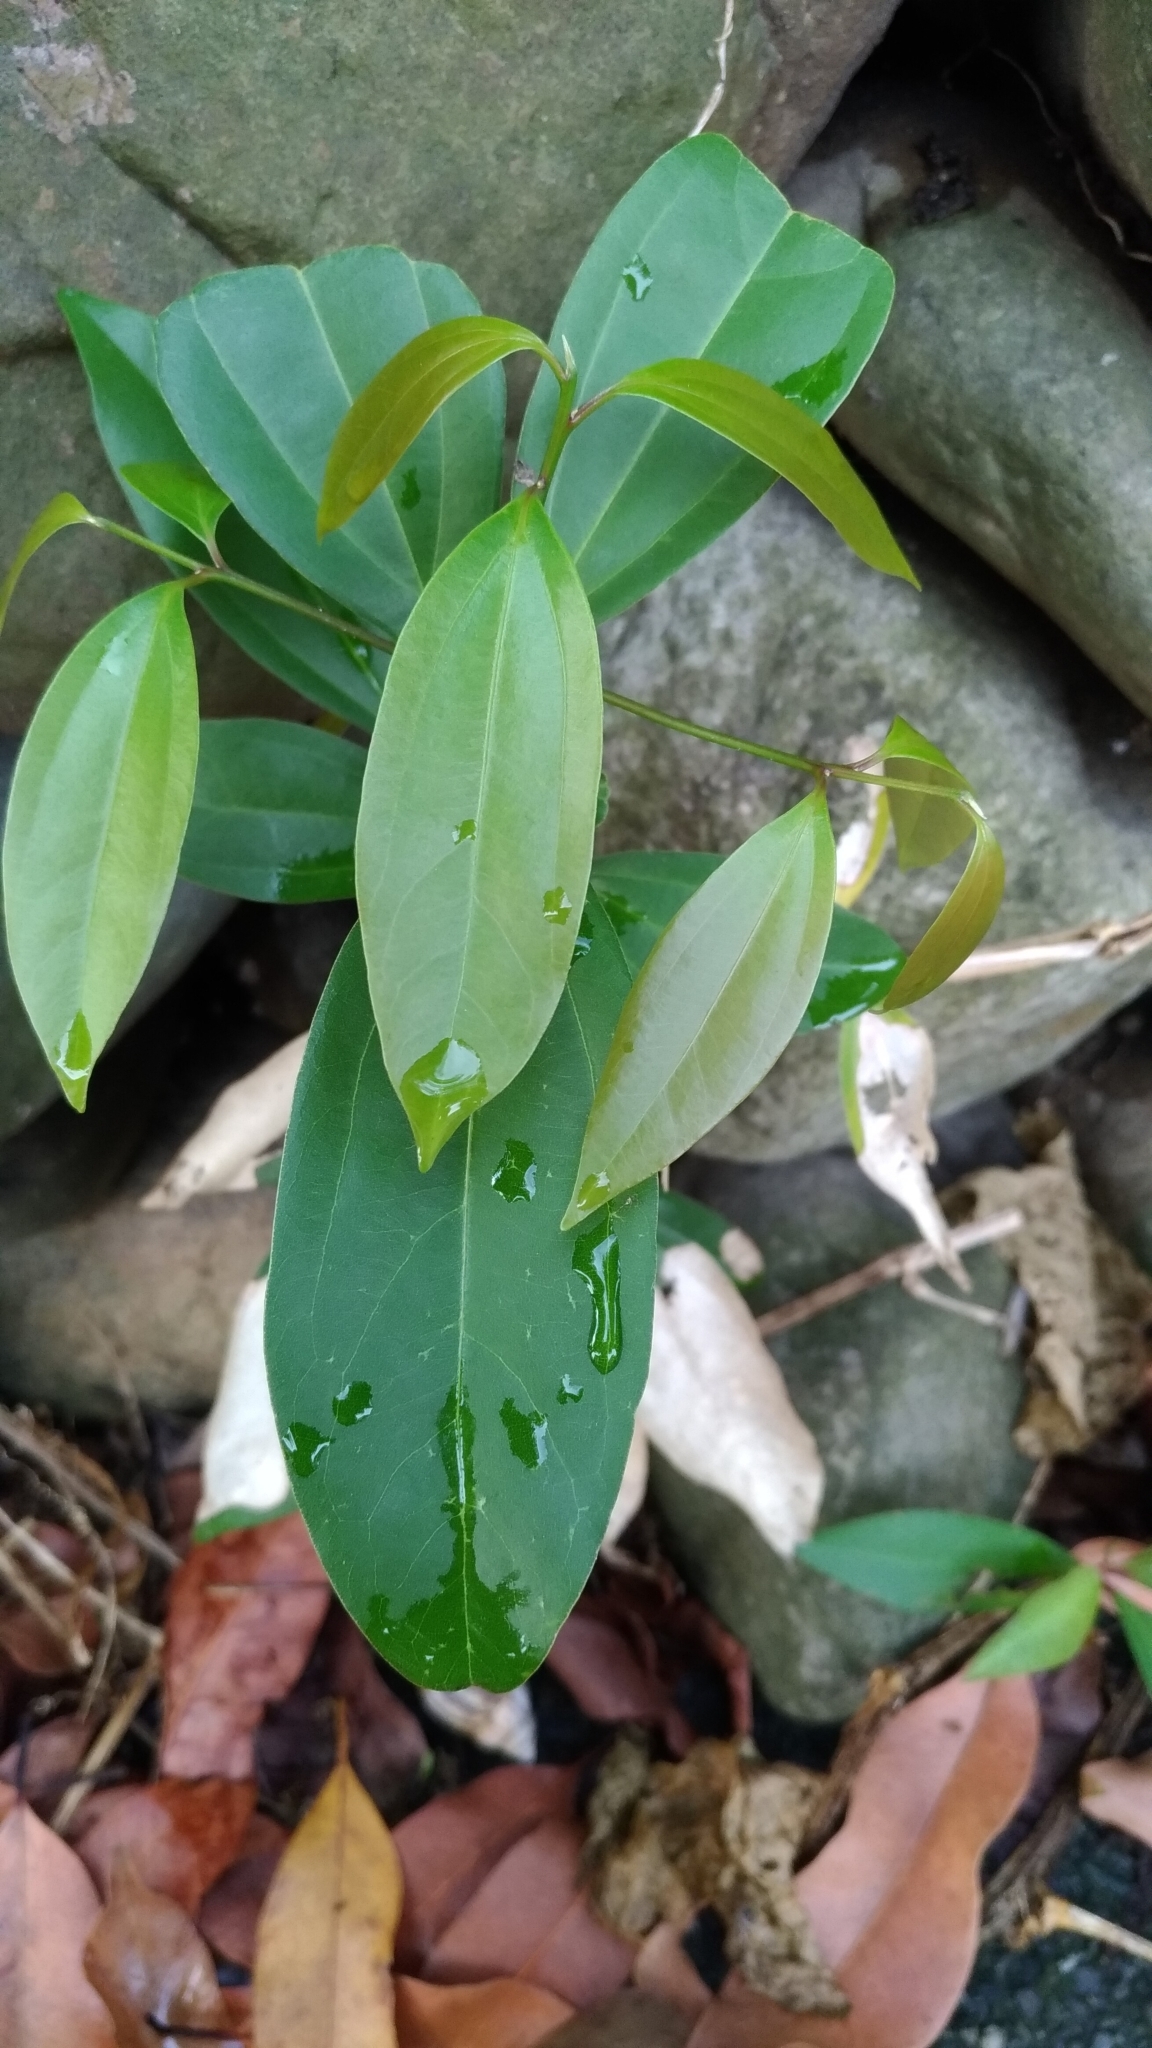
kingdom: Plantae
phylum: Tracheophyta
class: Magnoliopsida
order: Laurales
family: Lauraceae
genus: Cinnamomum
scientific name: Cinnamomum burmanni
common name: Padang cassia
